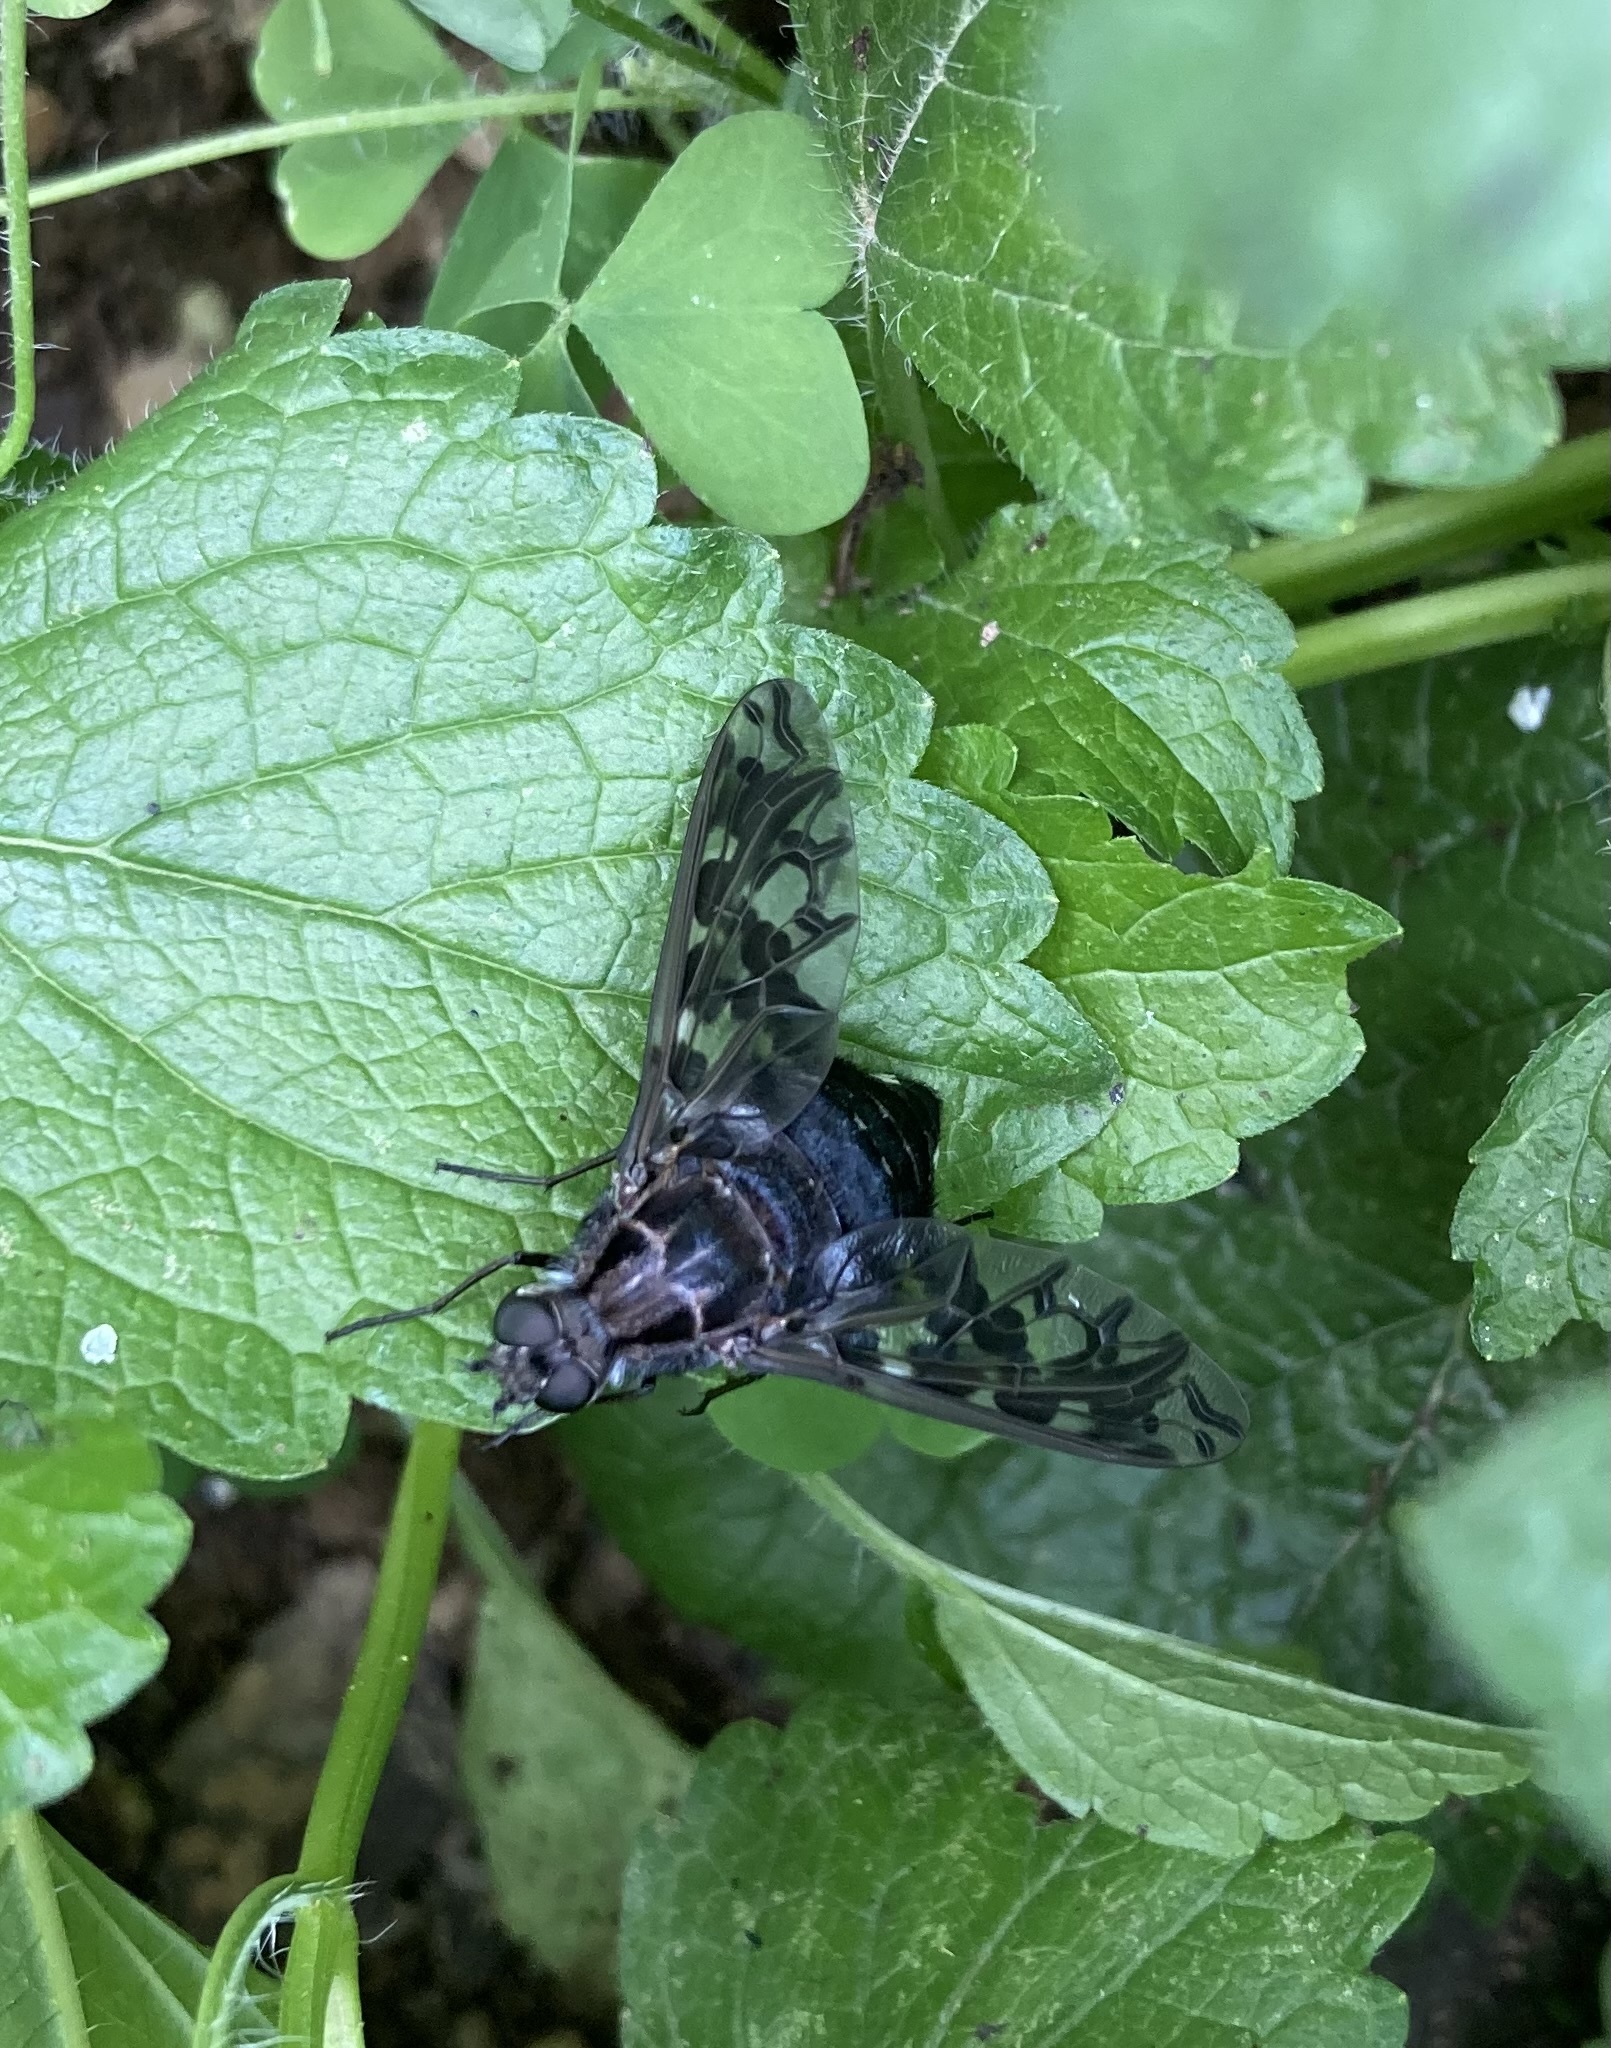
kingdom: Animalia
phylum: Arthropoda
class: Insecta
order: Diptera
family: Bombyliidae
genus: Xenox
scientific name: Xenox tigrinus
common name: Tiger bee fly
